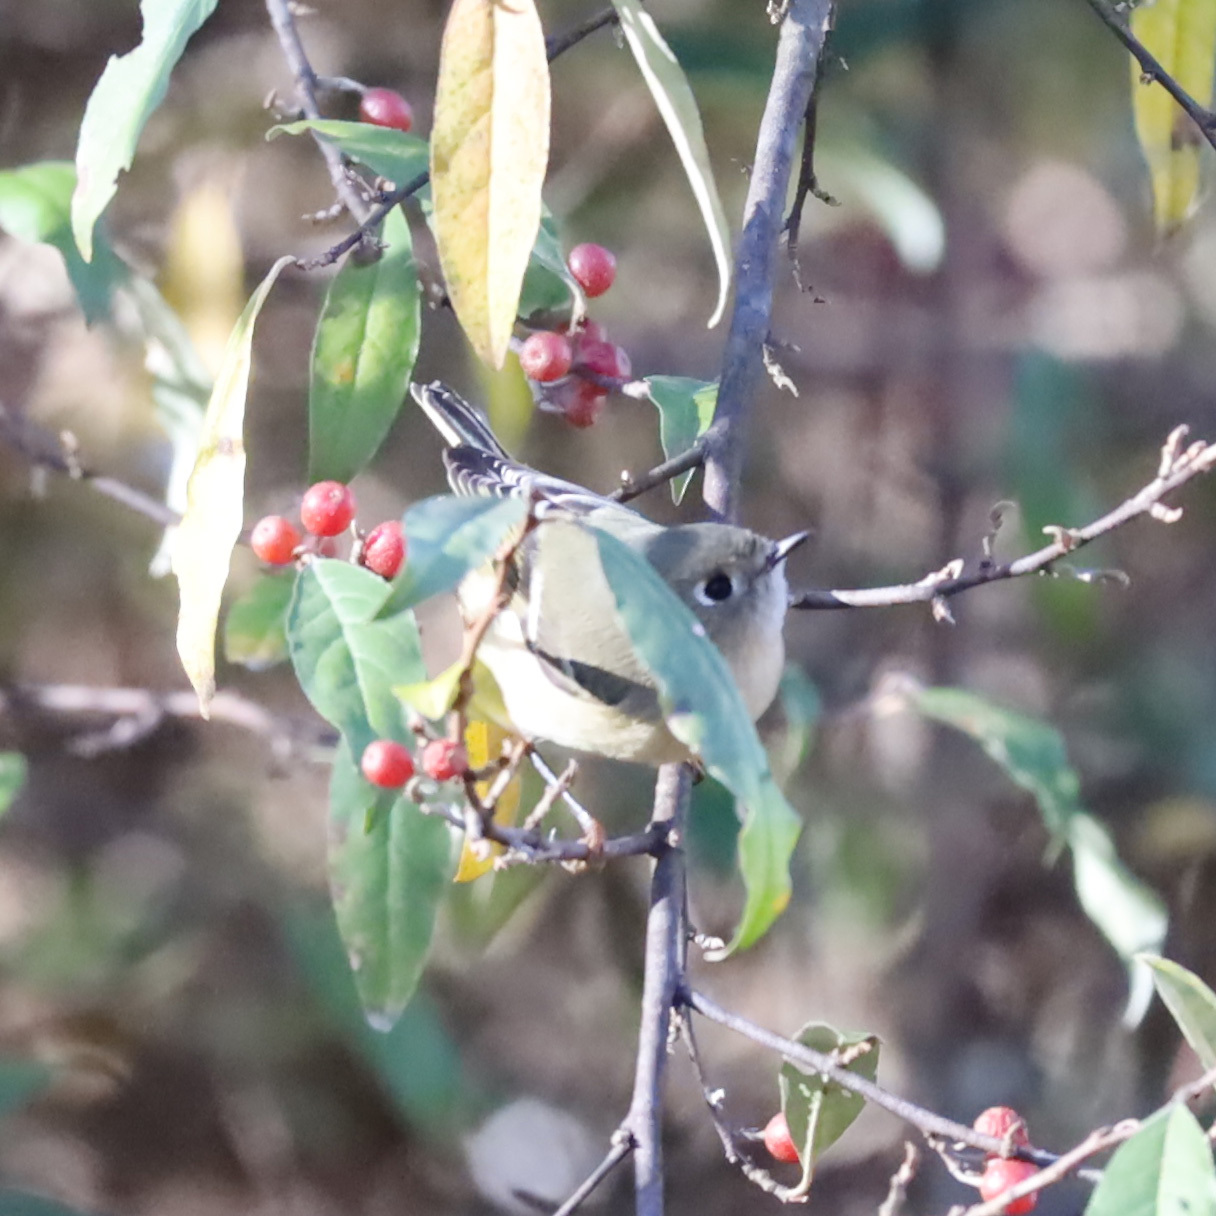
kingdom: Animalia
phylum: Chordata
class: Aves
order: Passeriformes
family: Regulidae
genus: Regulus
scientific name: Regulus calendula
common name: Ruby-crowned kinglet
